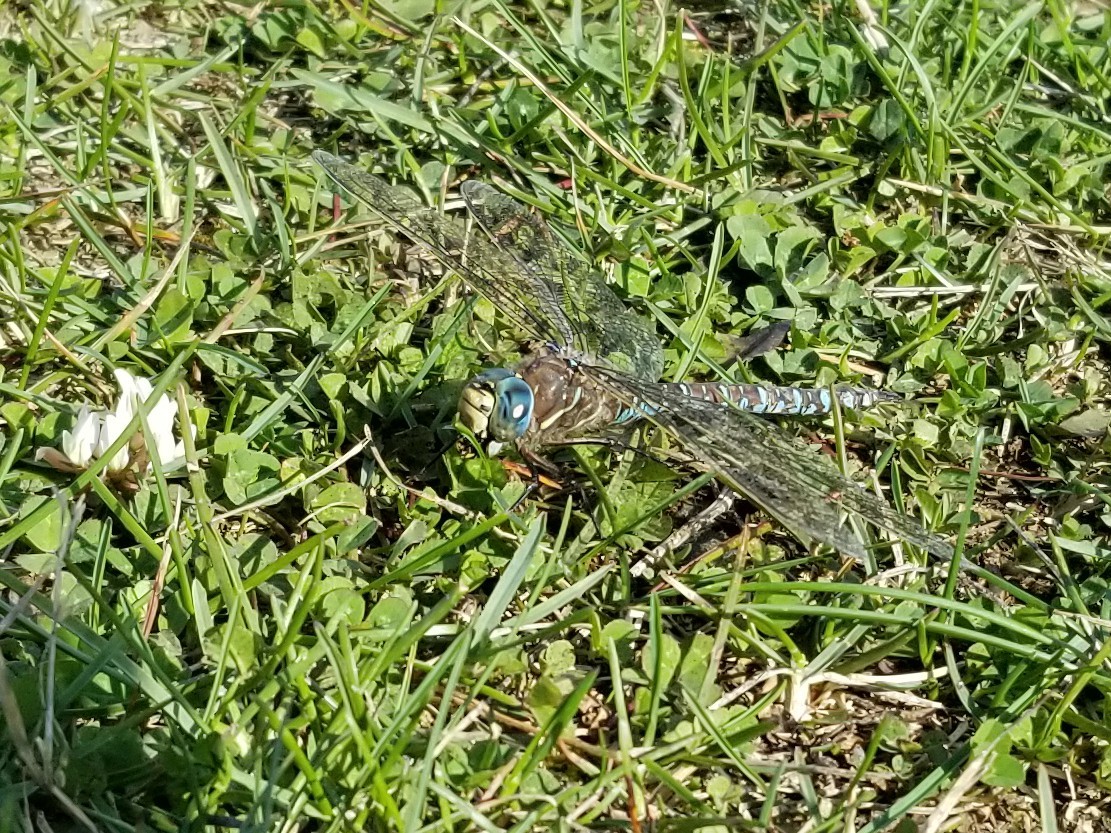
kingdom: Animalia
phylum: Arthropoda
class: Insecta
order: Odonata
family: Aeshnidae
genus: Aeshna
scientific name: Aeshna interrupta
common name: Variable darner
